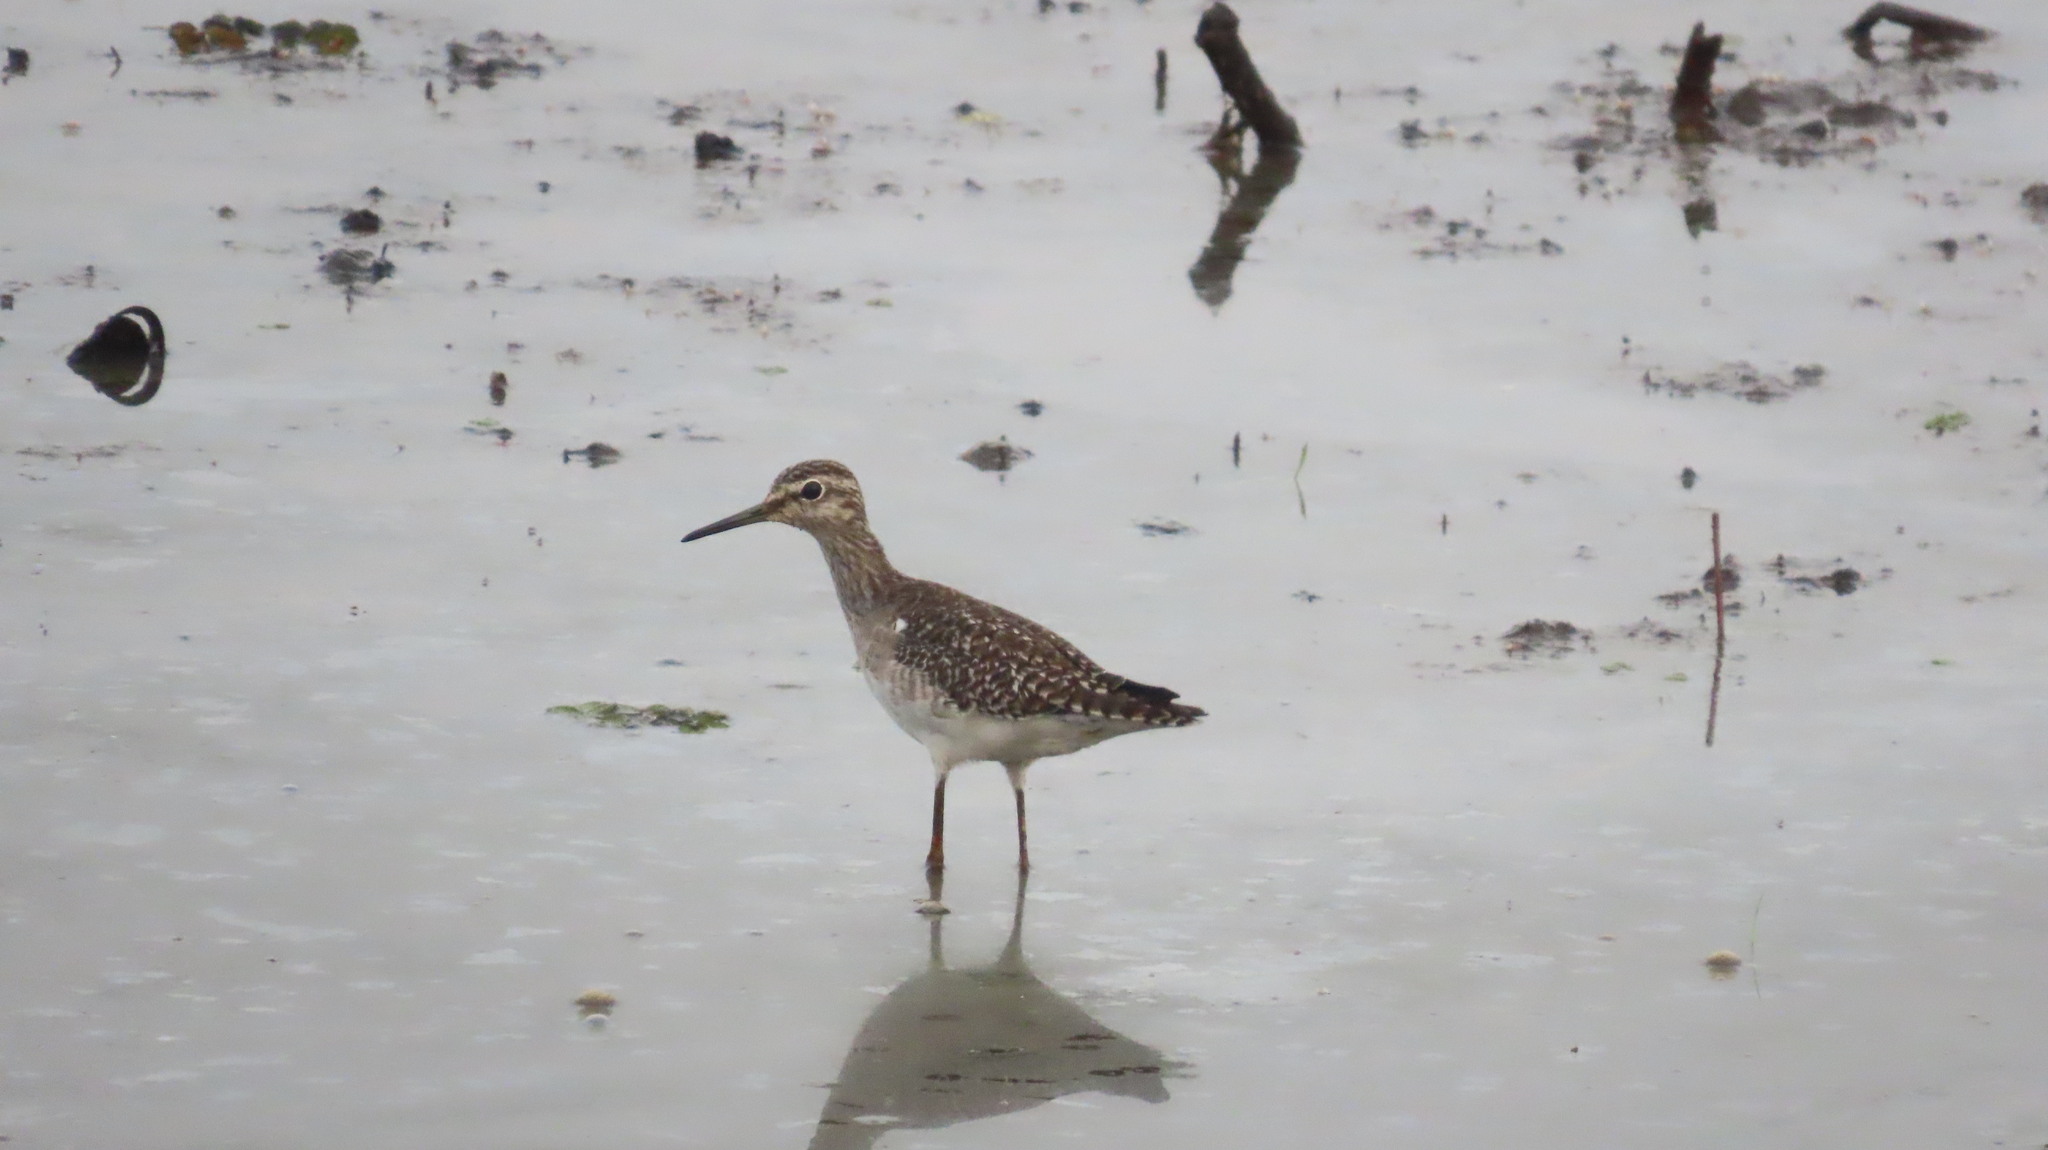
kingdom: Animalia
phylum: Chordata
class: Aves
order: Charadriiformes
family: Scolopacidae
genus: Tringa
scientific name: Tringa glareola
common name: Wood sandpiper
